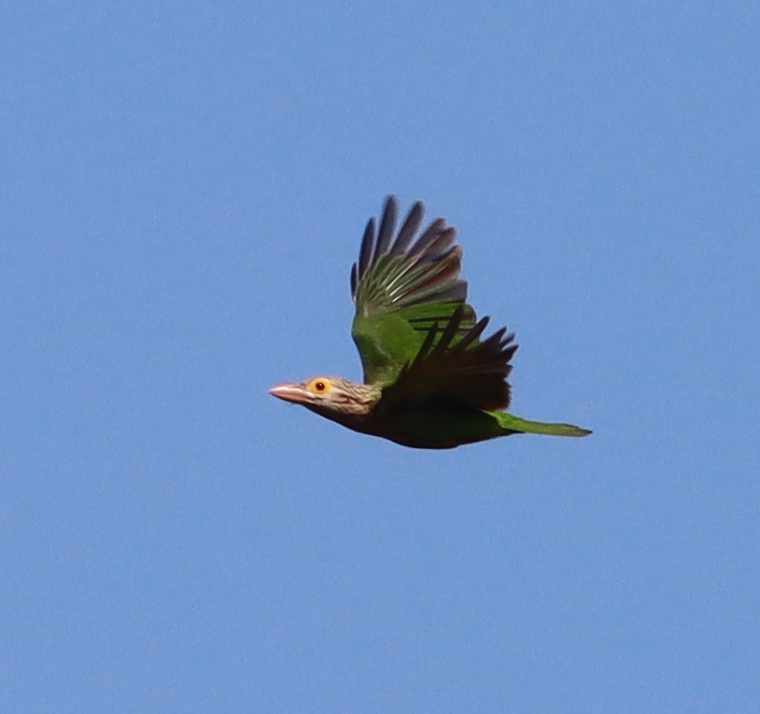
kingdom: Animalia
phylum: Chordata
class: Aves
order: Piciformes
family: Megalaimidae
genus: Psilopogon
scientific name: Psilopogon lineatus
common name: Lineated barbet
